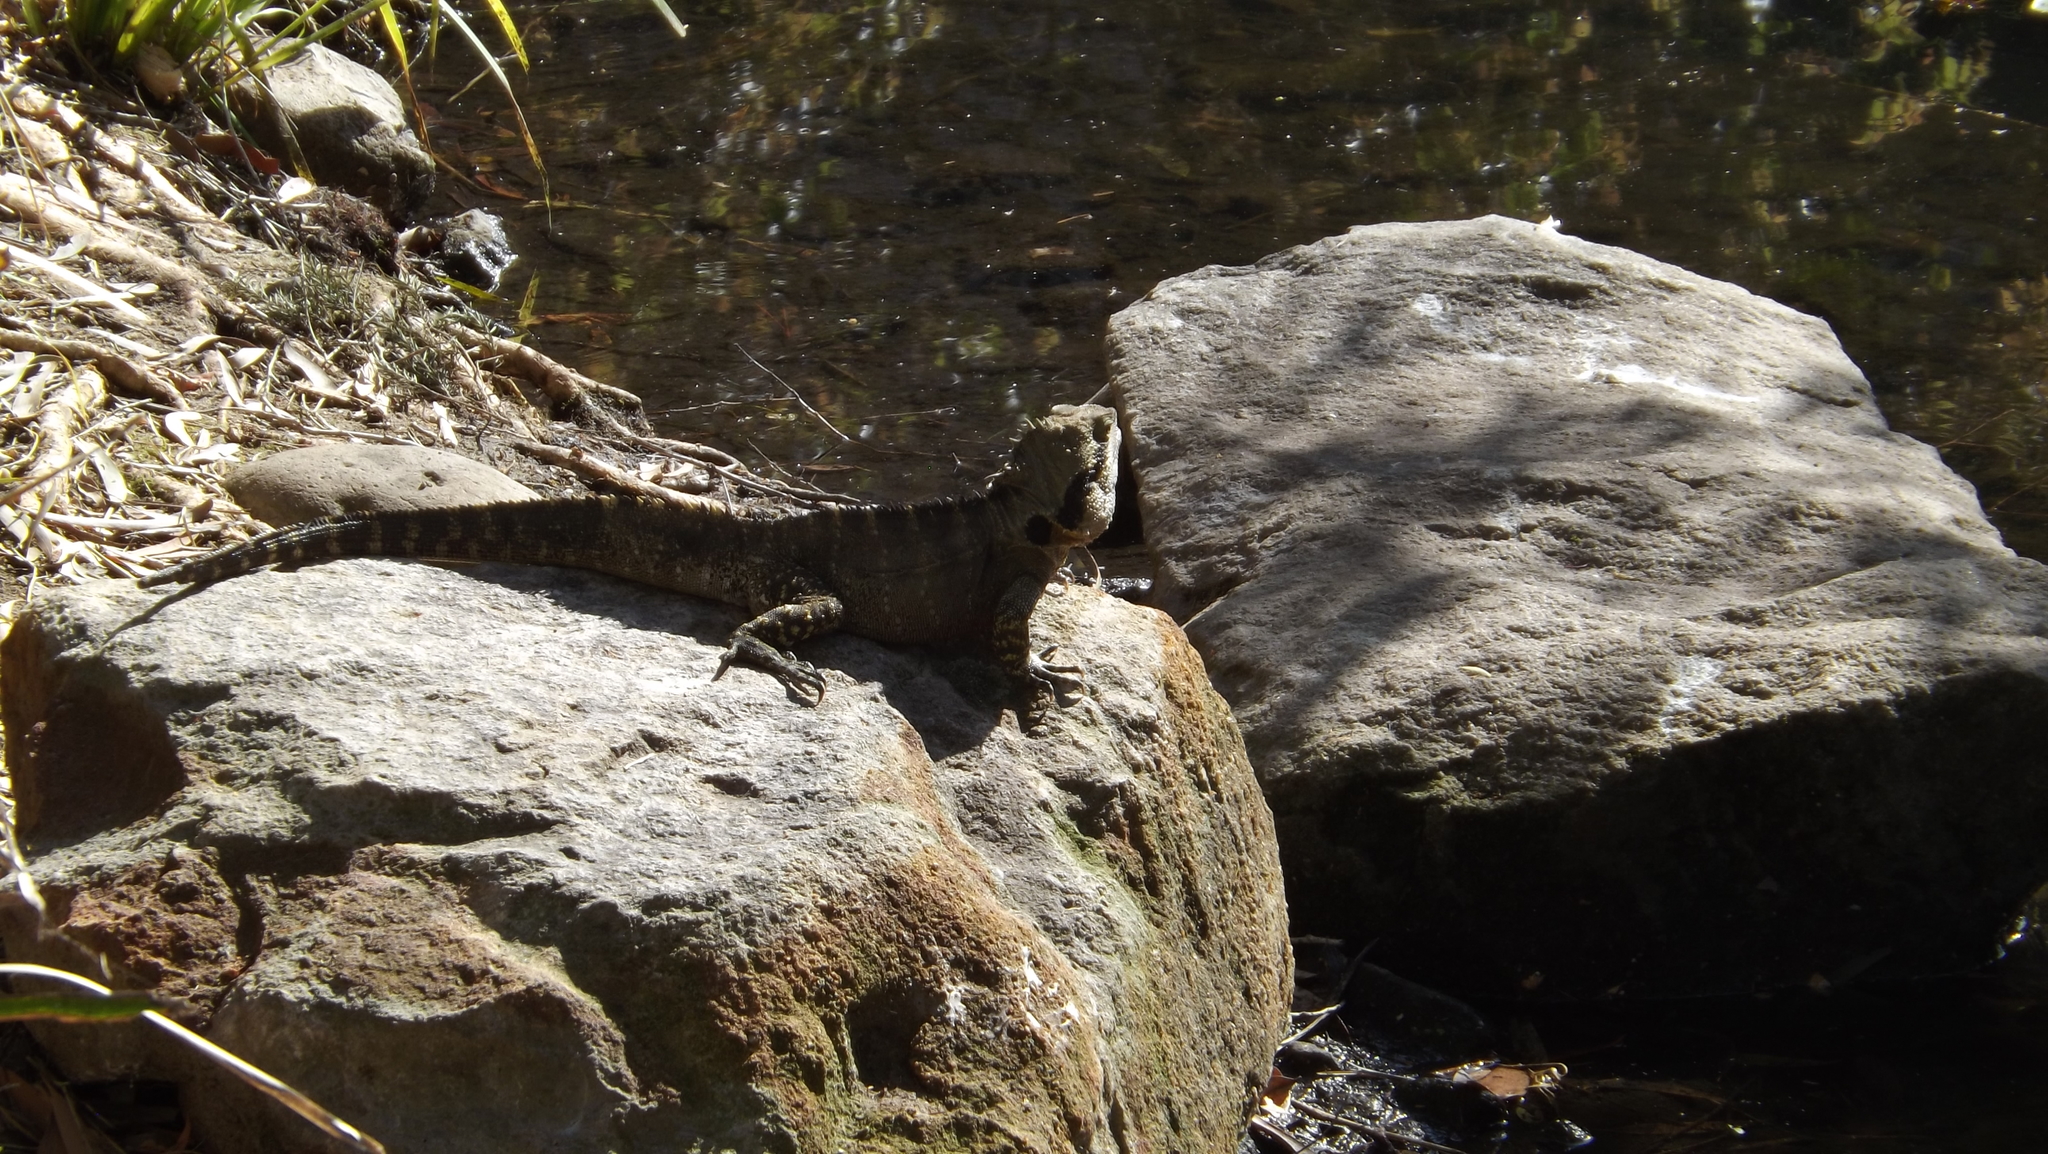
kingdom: Animalia
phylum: Chordata
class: Squamata
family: Agamidae
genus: Intellagama
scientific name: Intellagama lesueurii
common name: Eastern water dragon
